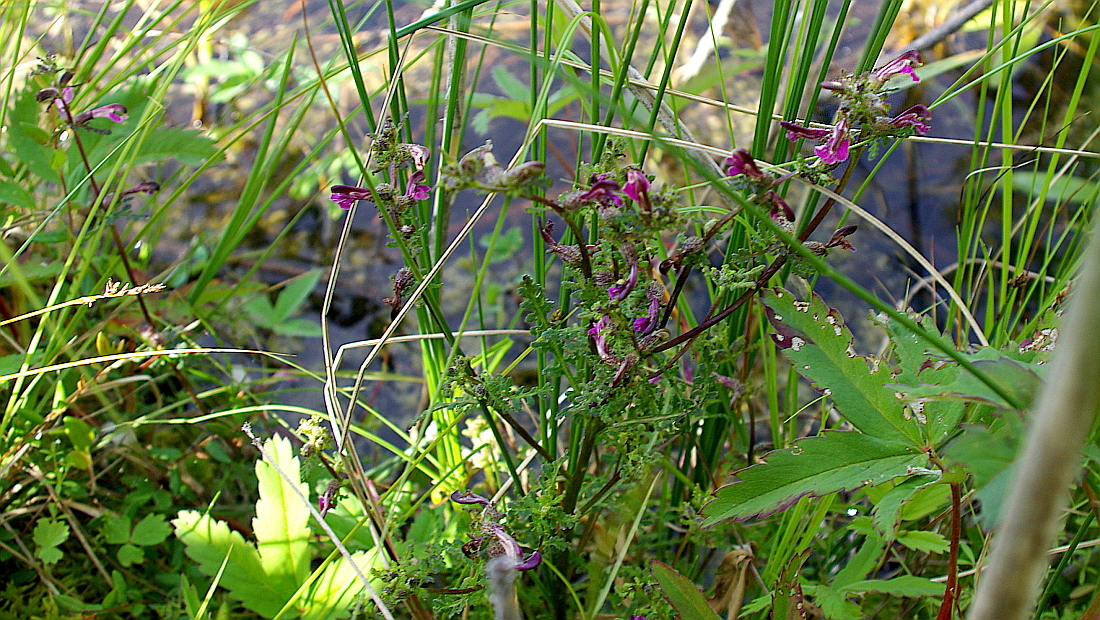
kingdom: Plantae
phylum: Tracheophyta
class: Magnoliopsida
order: Lamiales
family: Orobanchaceae
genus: Pedicularis
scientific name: Pedicularis palustris
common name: Marsh lousewort
